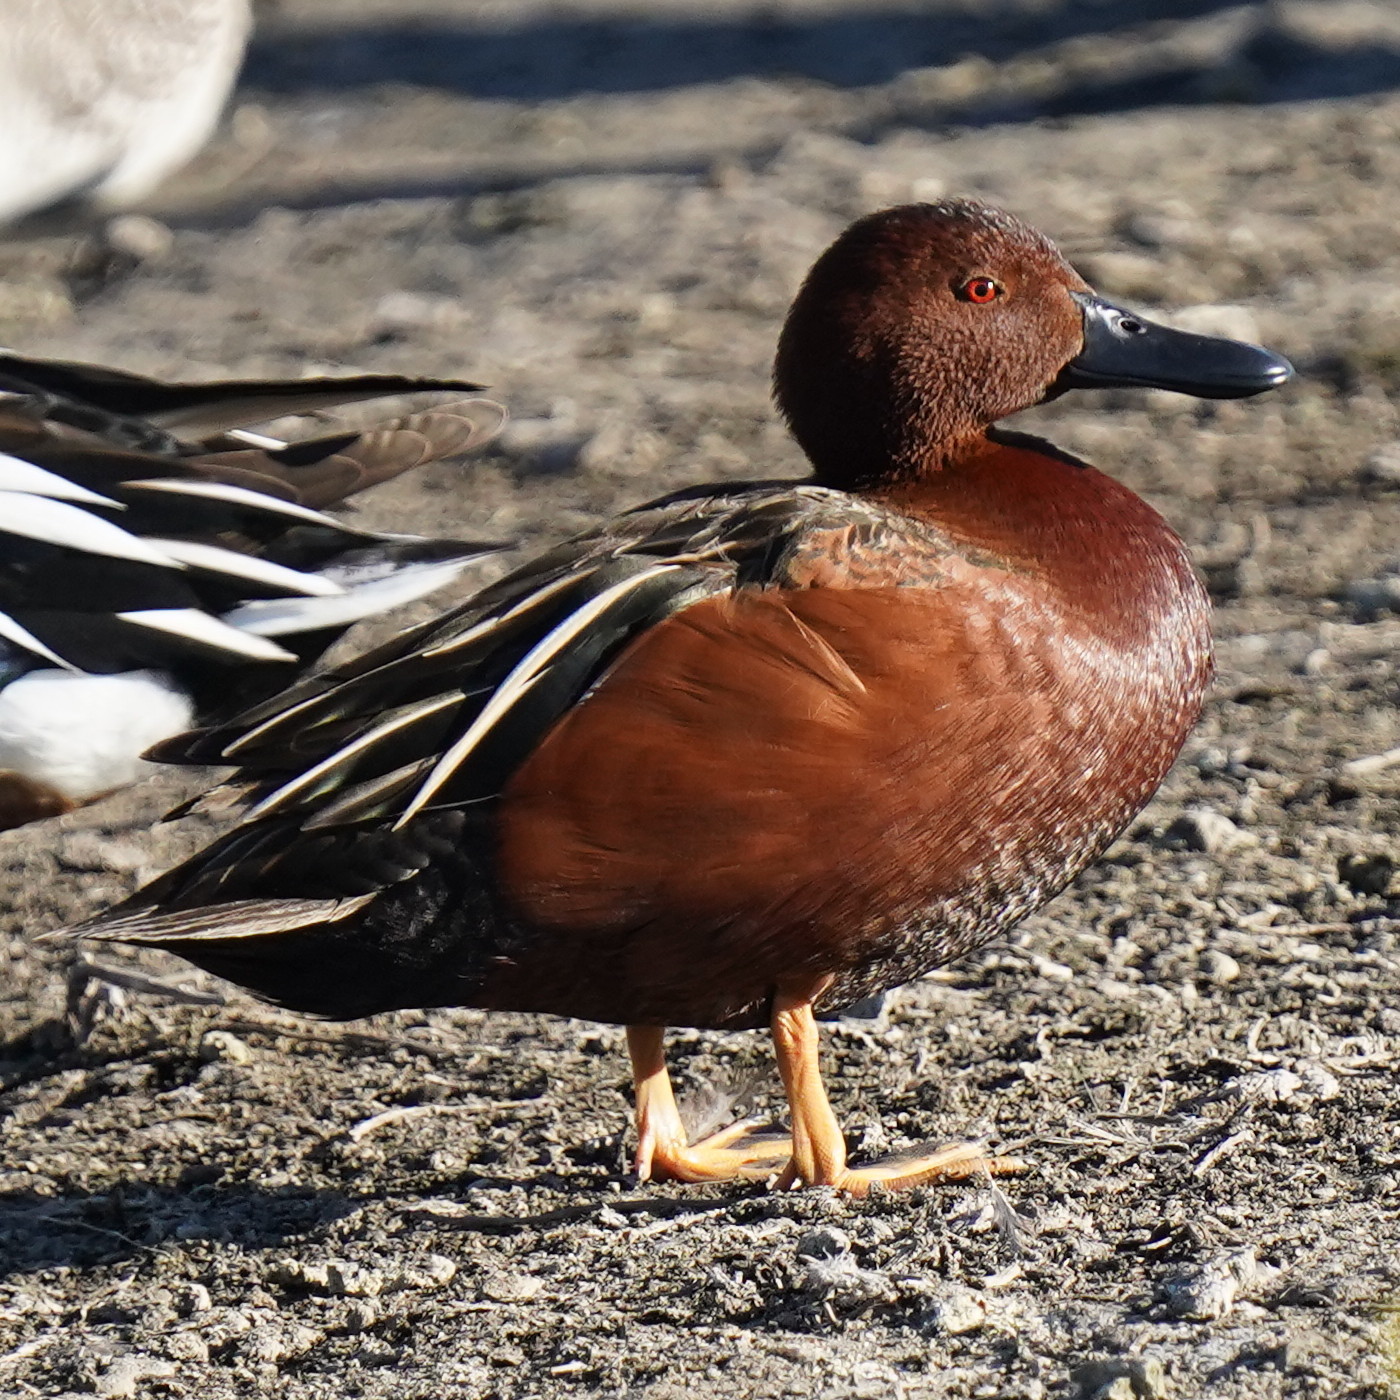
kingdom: Animalia
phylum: Chordata
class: Aves
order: Anseriformes
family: Anatidae
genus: Spatula
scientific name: Spatula cyanoptera
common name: Cinnamon teal
